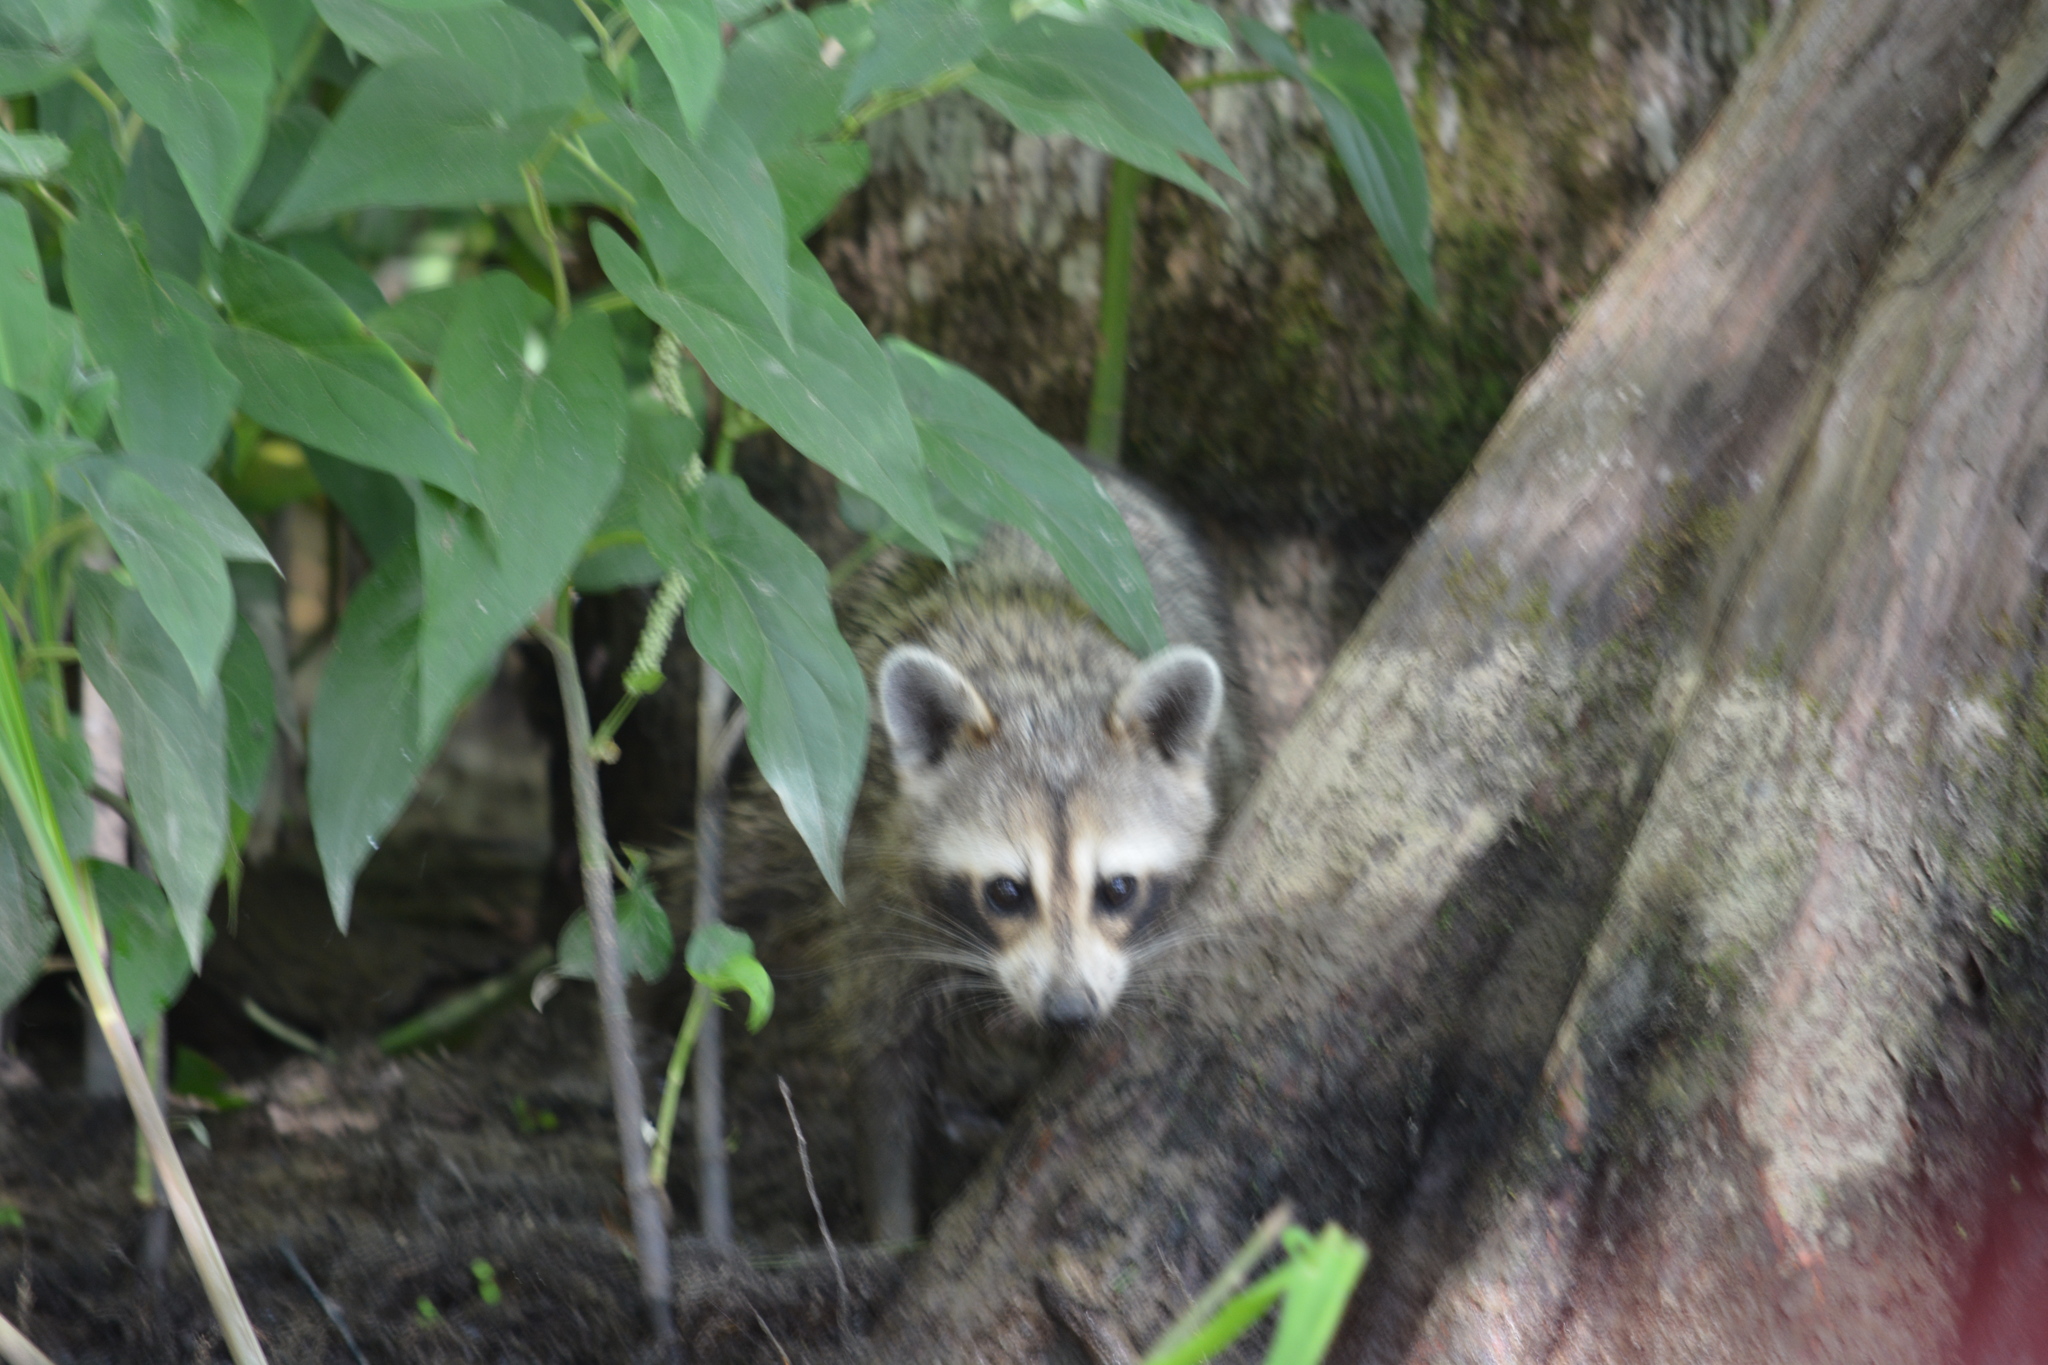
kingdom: Animalia
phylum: Chordata
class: Mammalia
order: Carnivora
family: Procyonidae
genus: Procyon
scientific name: Procyon lotor
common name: Raccoon
